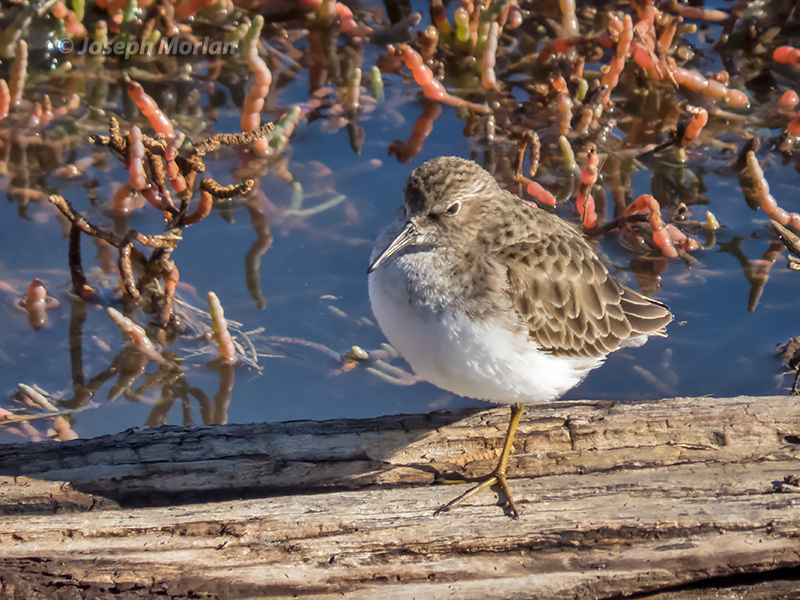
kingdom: Animalia
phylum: Chordata
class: Aves
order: Charadriiformes
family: Scolopacidae
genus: Calidris
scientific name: Calidris minutilla
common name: Least sandpiper
